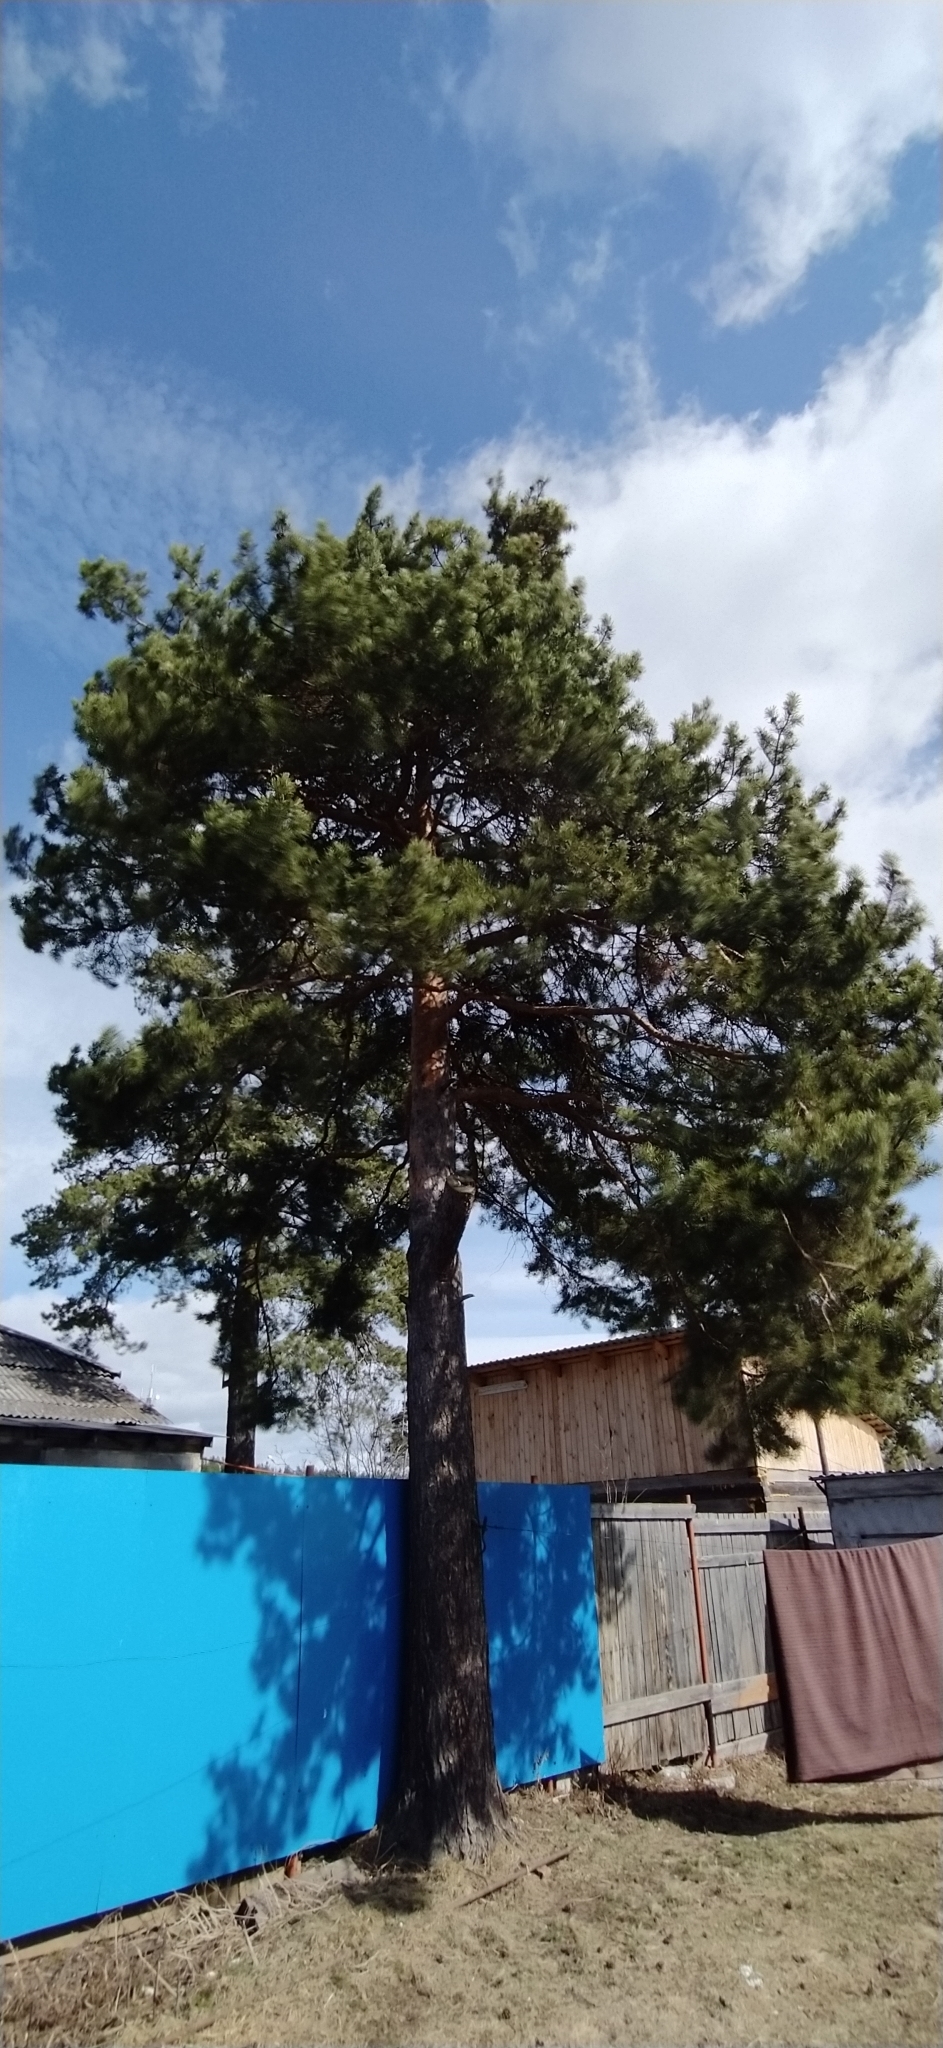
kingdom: Plantae
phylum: Tracheophyta
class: Pinopsida
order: Pinales
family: Pinaceae
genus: Pinus
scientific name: Pinus sylvestris
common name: Scots pine
